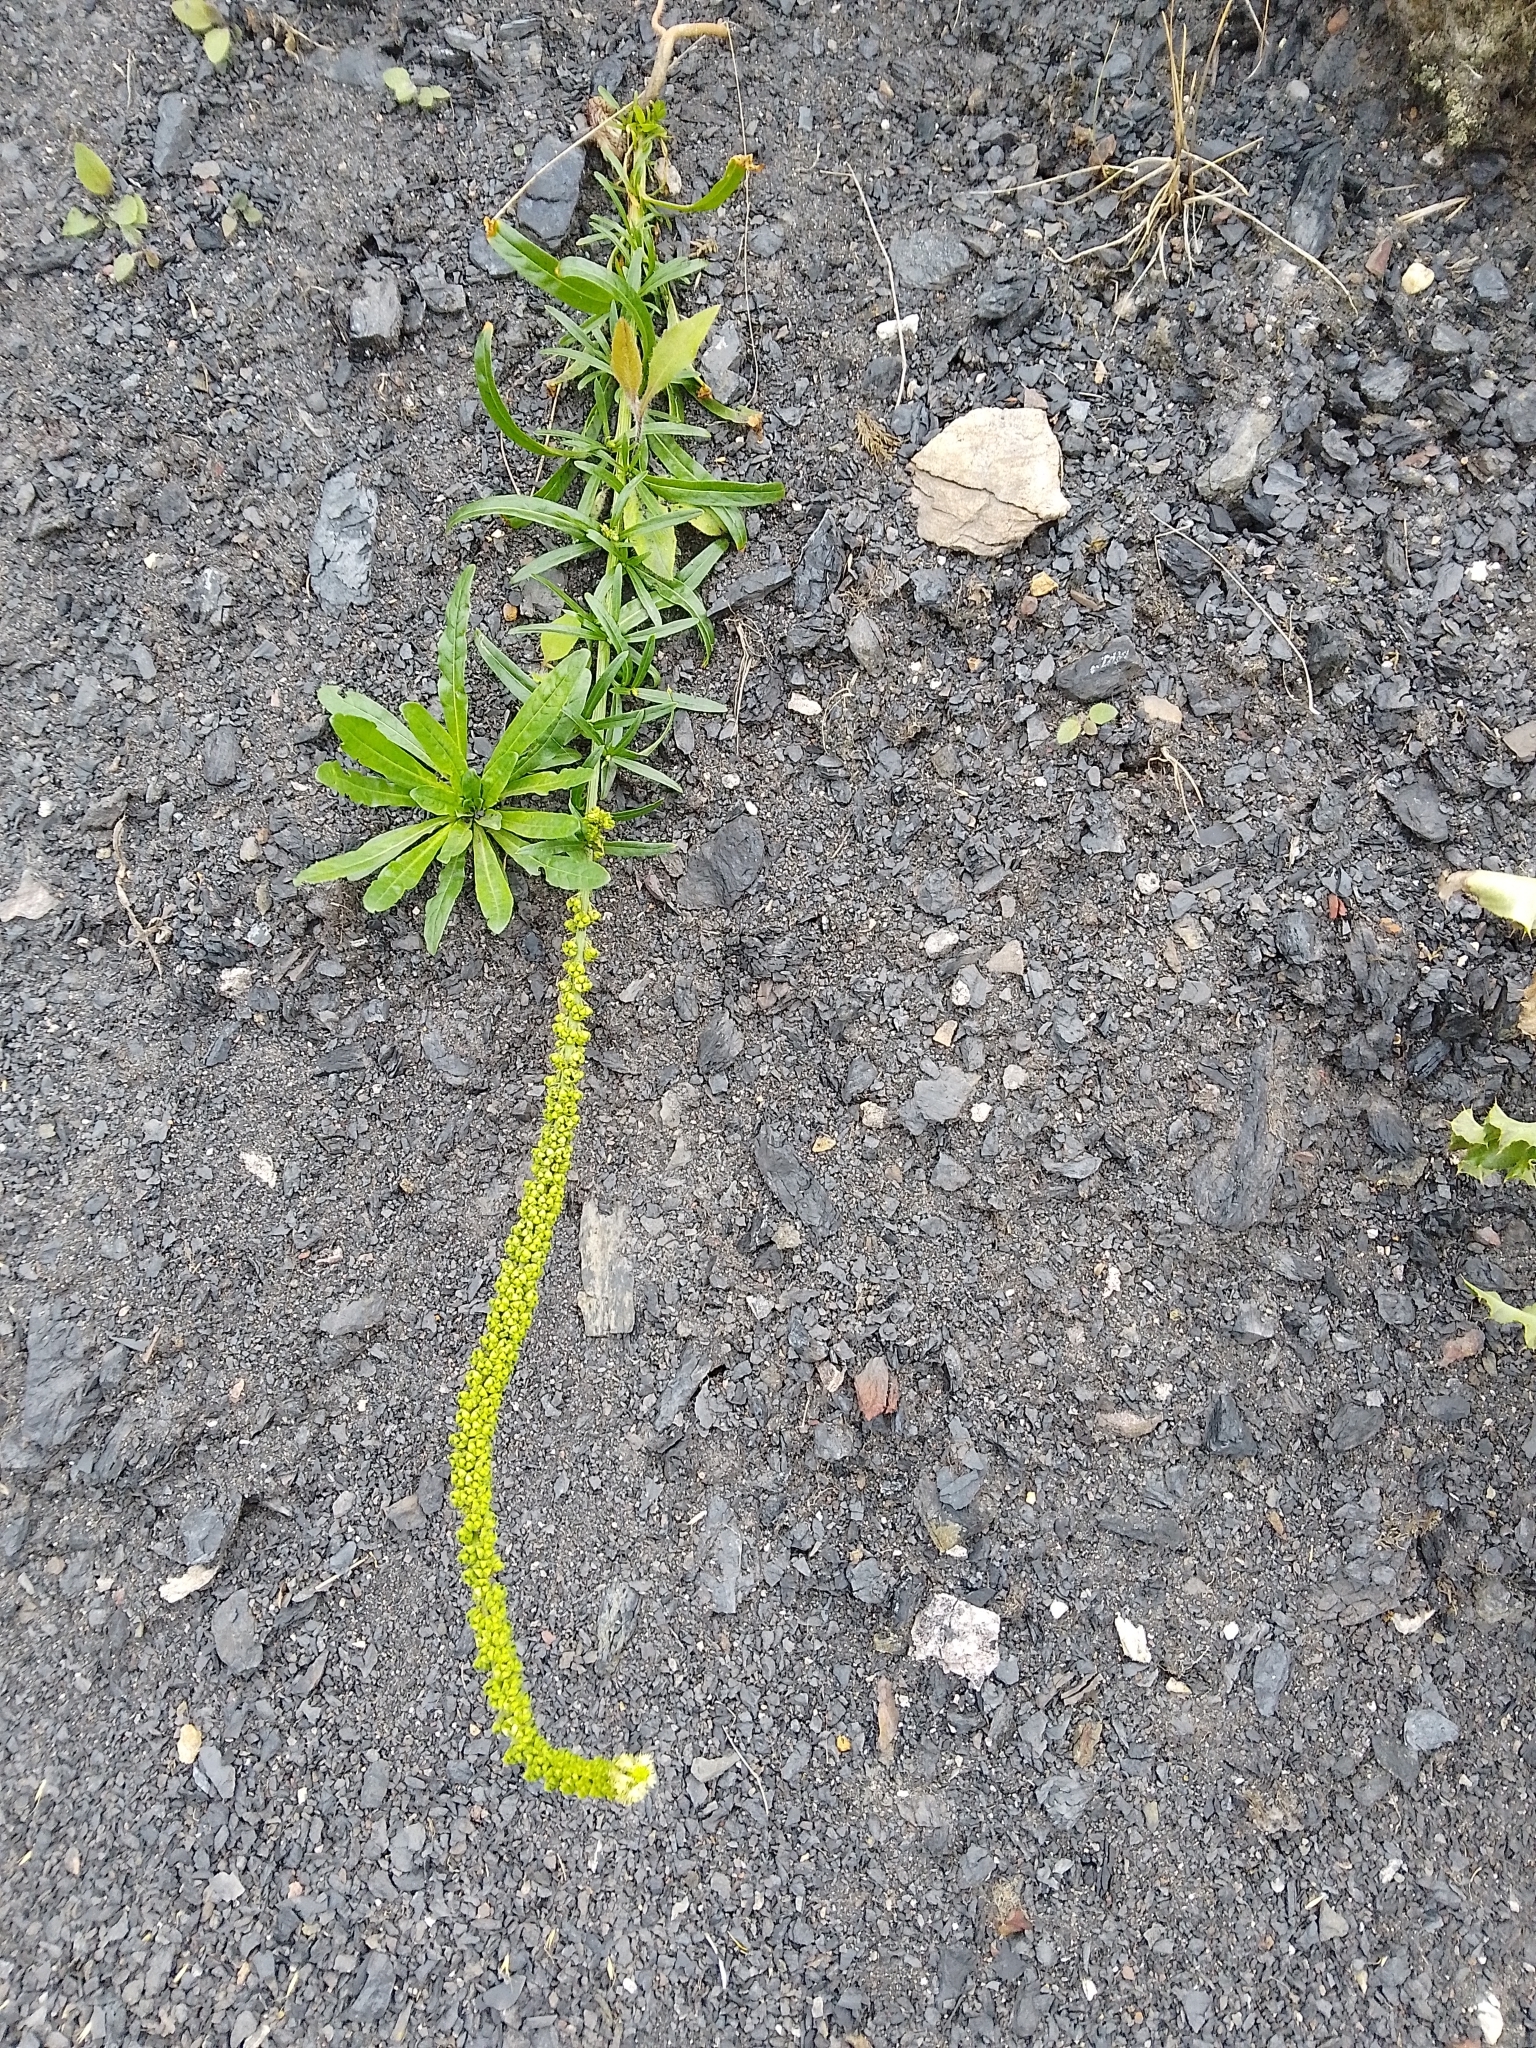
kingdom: Plantae
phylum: Tracheophyta
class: Magnoliopsida
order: Brassicales
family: Resedaceae
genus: Reseda
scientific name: Reseda luteola
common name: Weld
